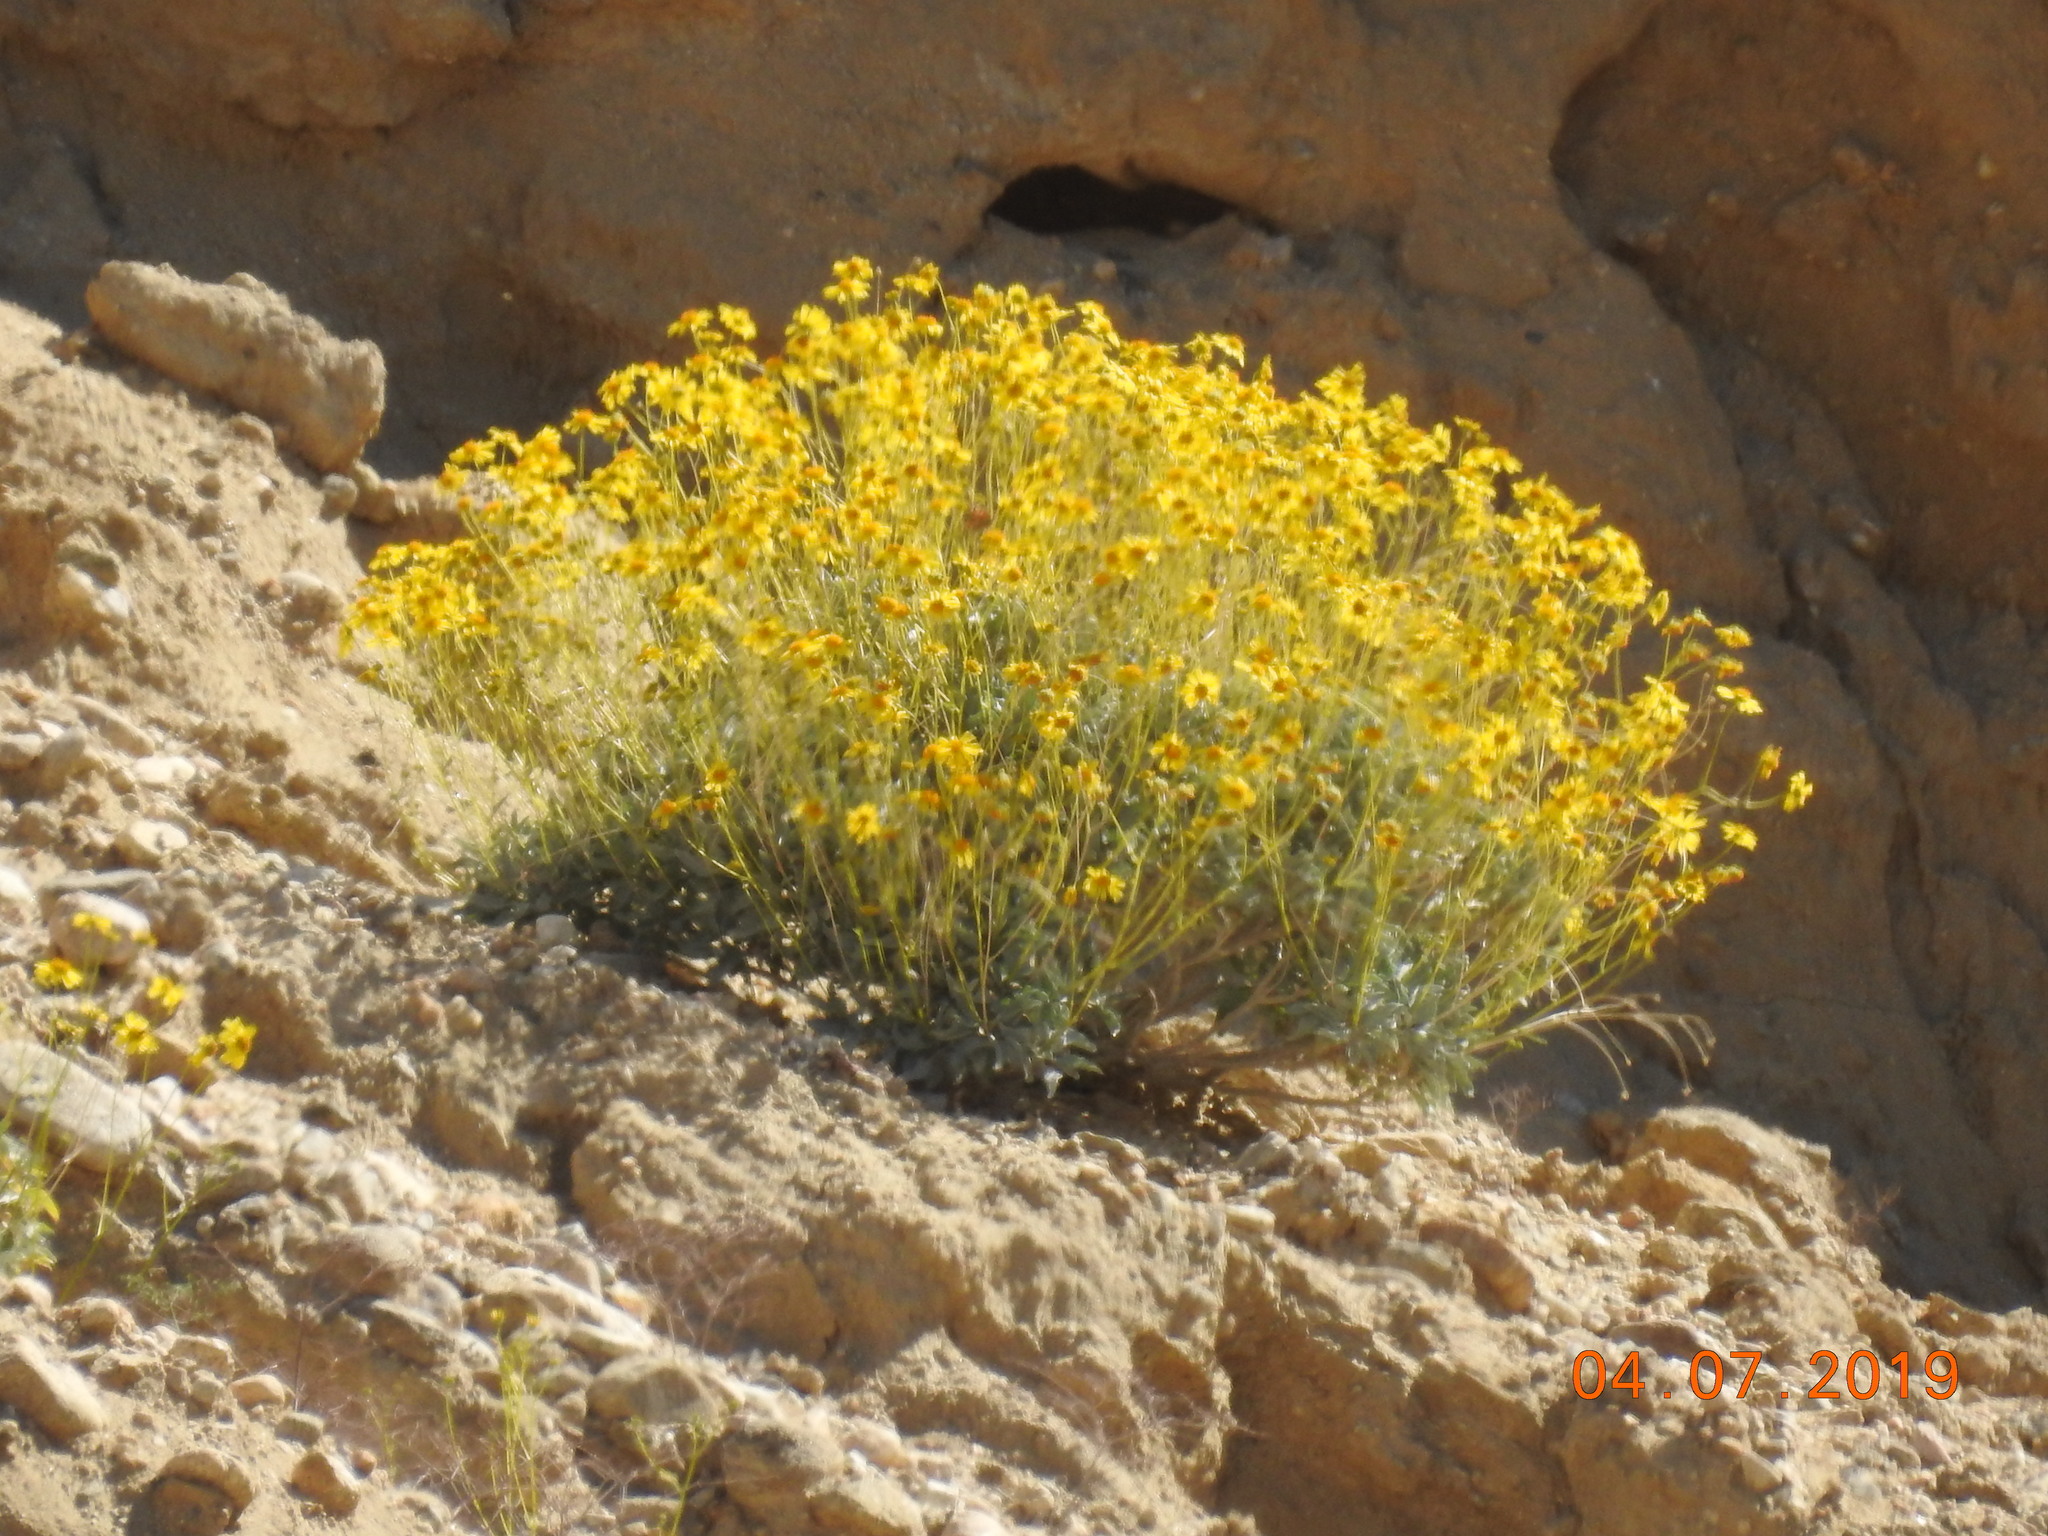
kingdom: Plantae
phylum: Tracheophyta
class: Magnoliopsida
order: Asterales
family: Asteraceae
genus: Encelia
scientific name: Encelia farinosa
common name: Brittlebush
